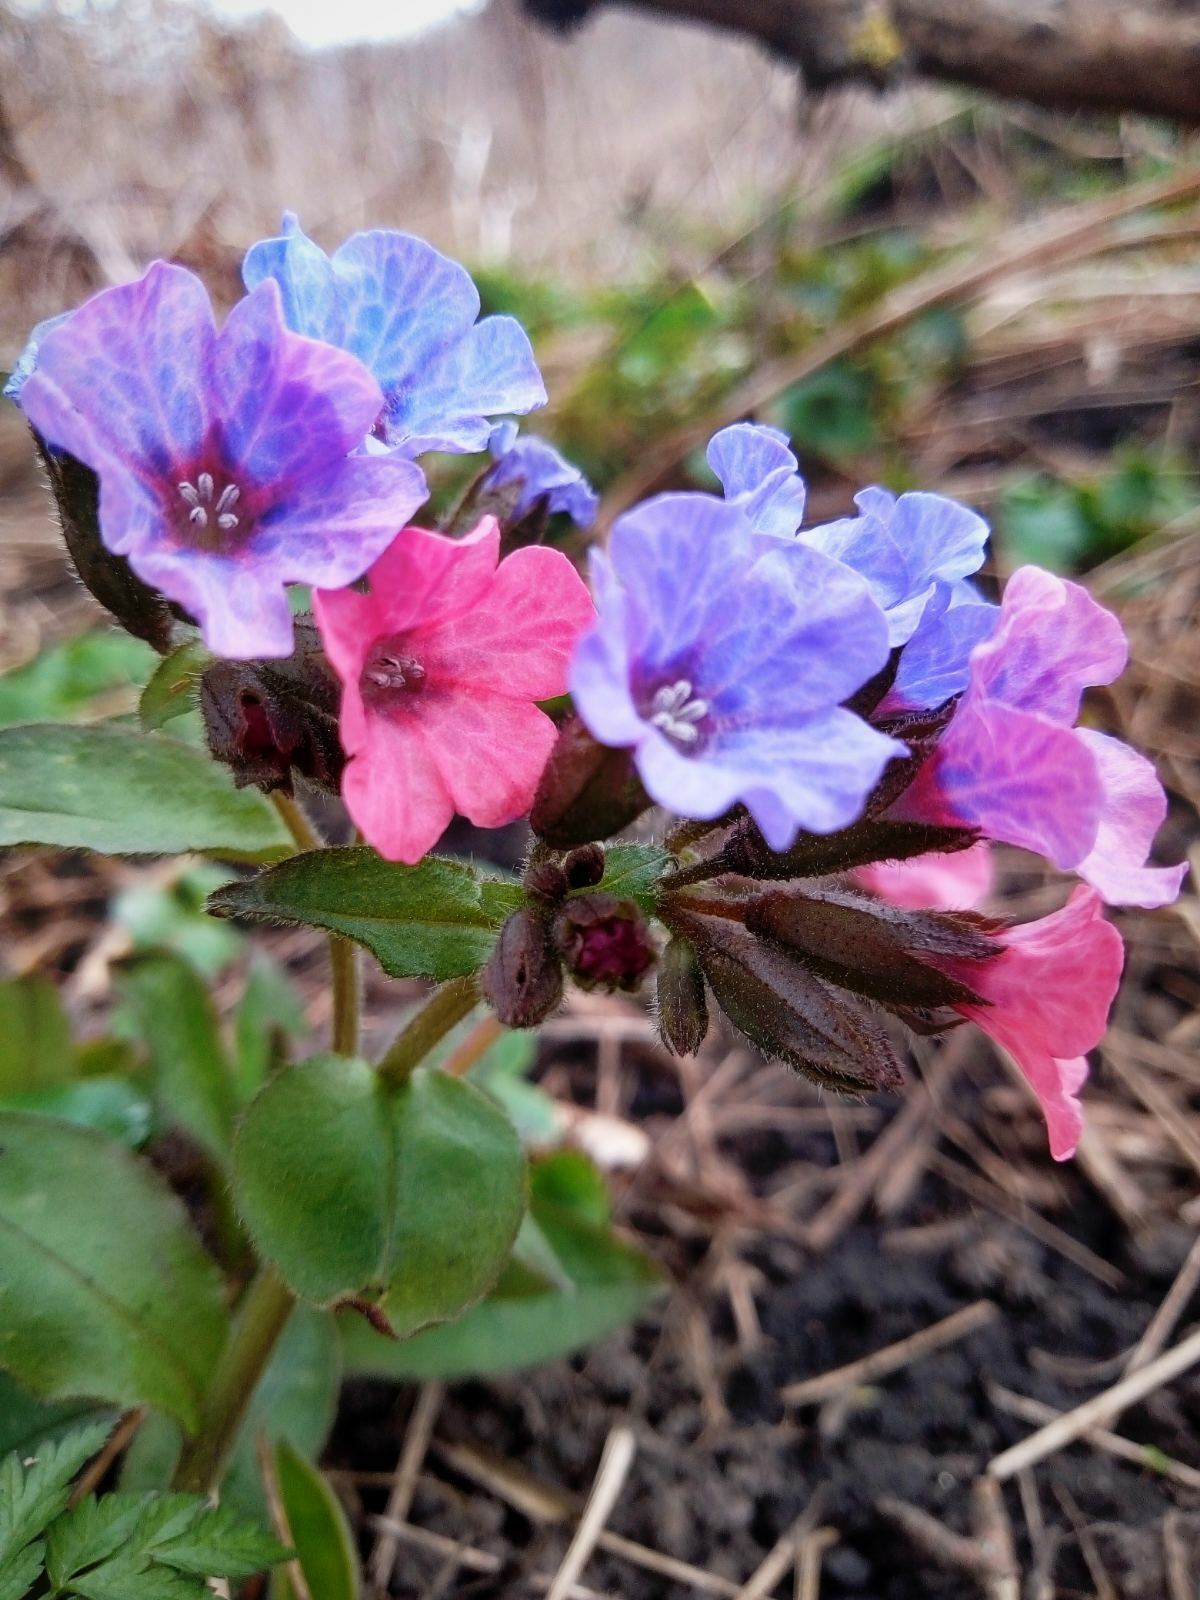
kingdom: Plantae
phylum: Tracheophyta
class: Magnoliopsida
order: Boraginales
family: Boraginaceae
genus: Pulmonaria
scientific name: Pulmonaria obscura
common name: Suffolk lungwort
